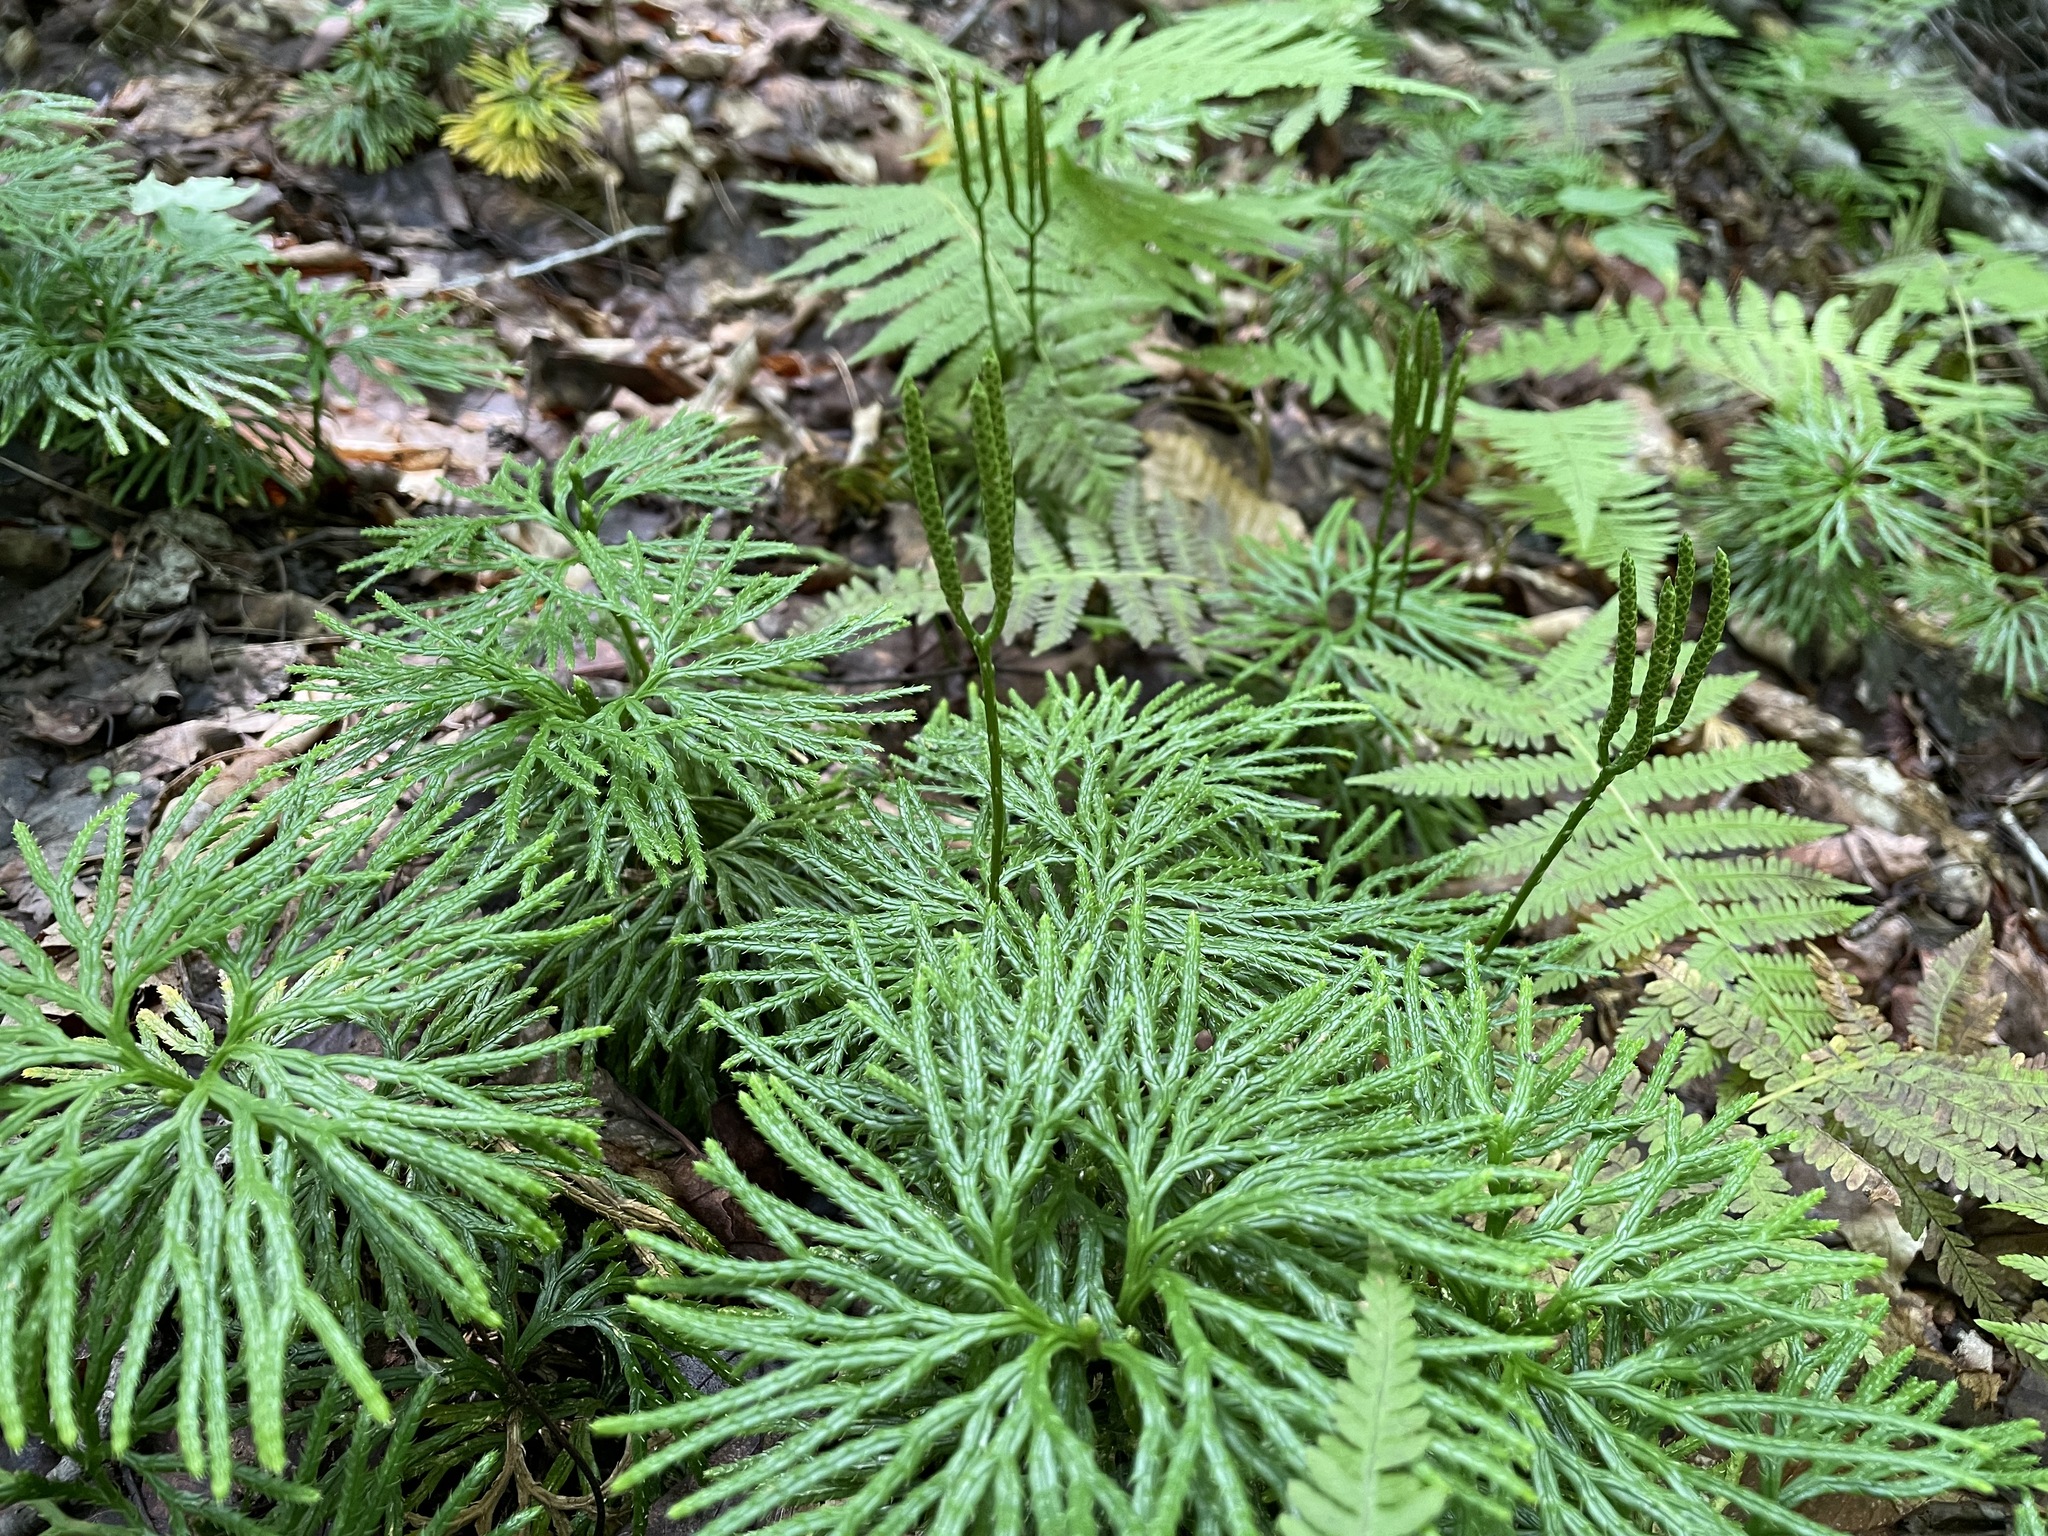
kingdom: Plantae
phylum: Tracheophyta
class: Lycopodiopsida
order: Lycopodiales
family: Lycopodiaceae
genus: Diphasiastrum
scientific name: Diphasiastrum digitatum
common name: Southern running-pine
